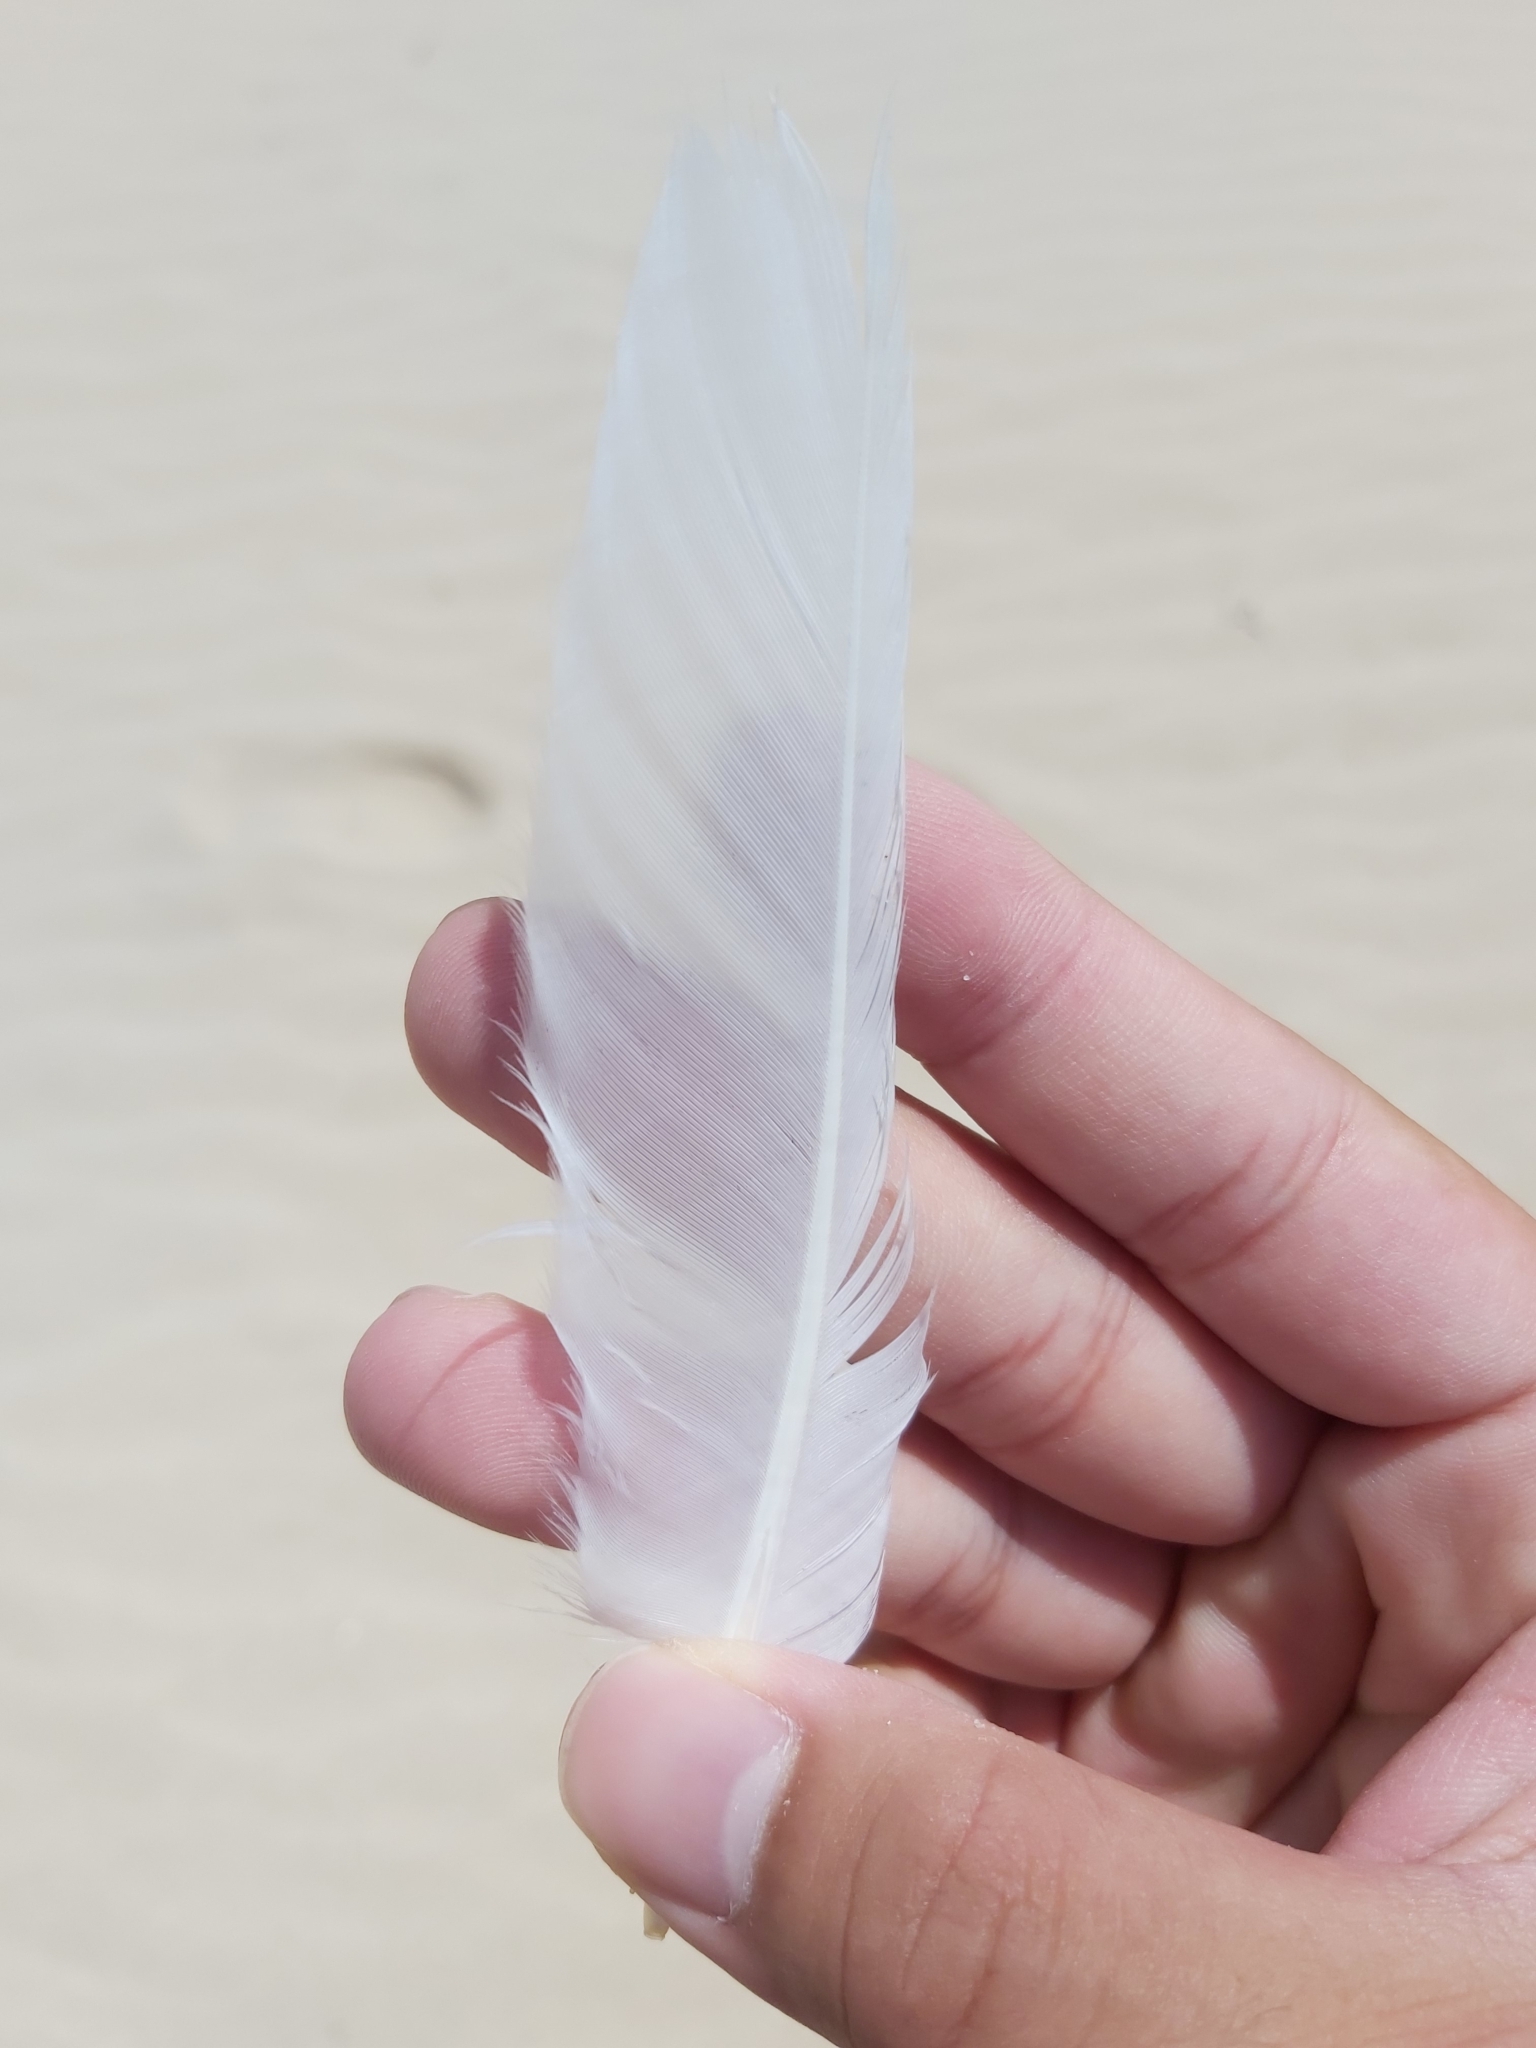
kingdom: Animalia
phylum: Chordata
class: Aves
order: Charadriiformes
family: Laridae
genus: Chroicocephalus
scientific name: Chroicocephalus novaehollandiae
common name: Silver gull
